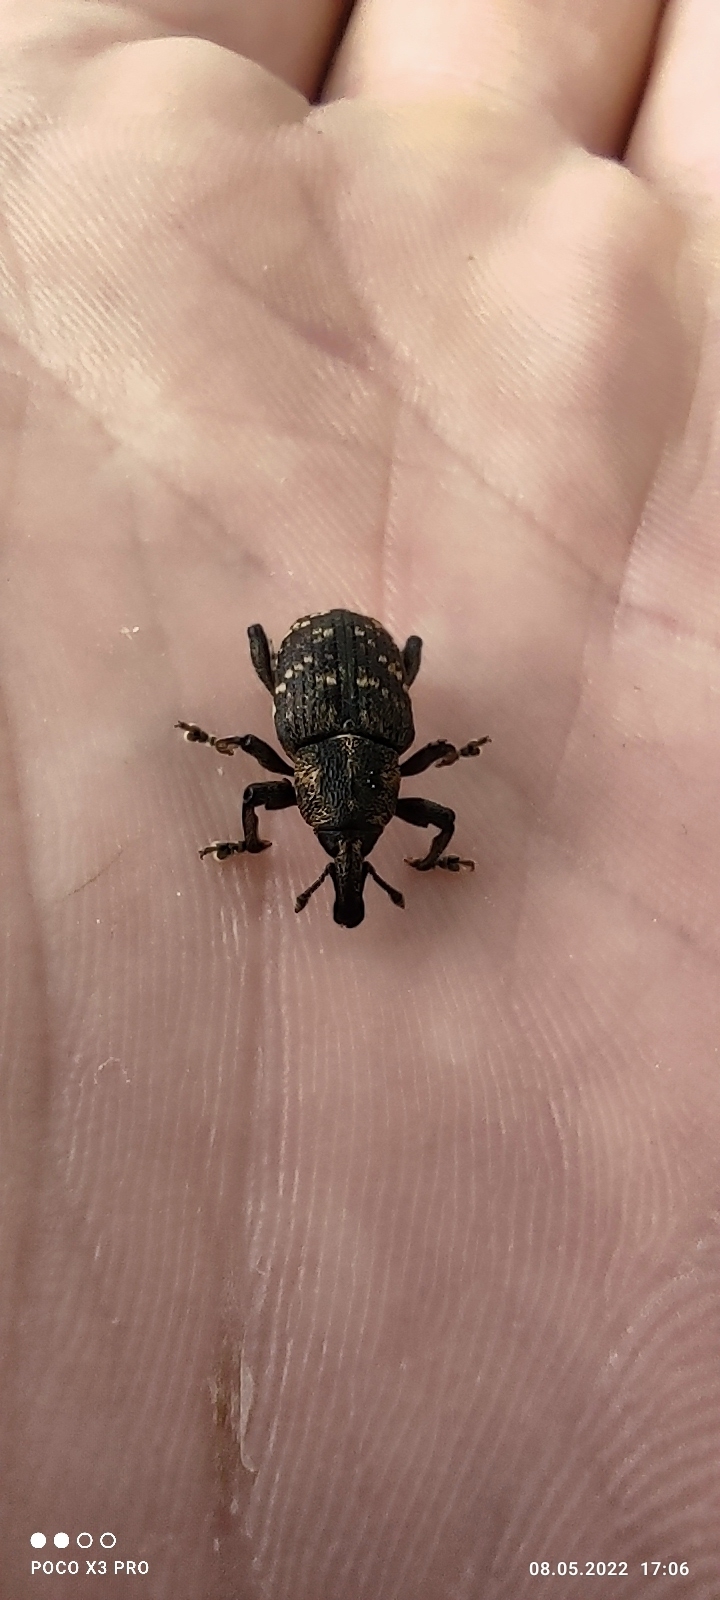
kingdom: Animalia
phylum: Arthropoda
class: Insecta
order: Coleoptera
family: Curculionidae
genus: Hylobius
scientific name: Hylobius abietis
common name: Large pine weevil
